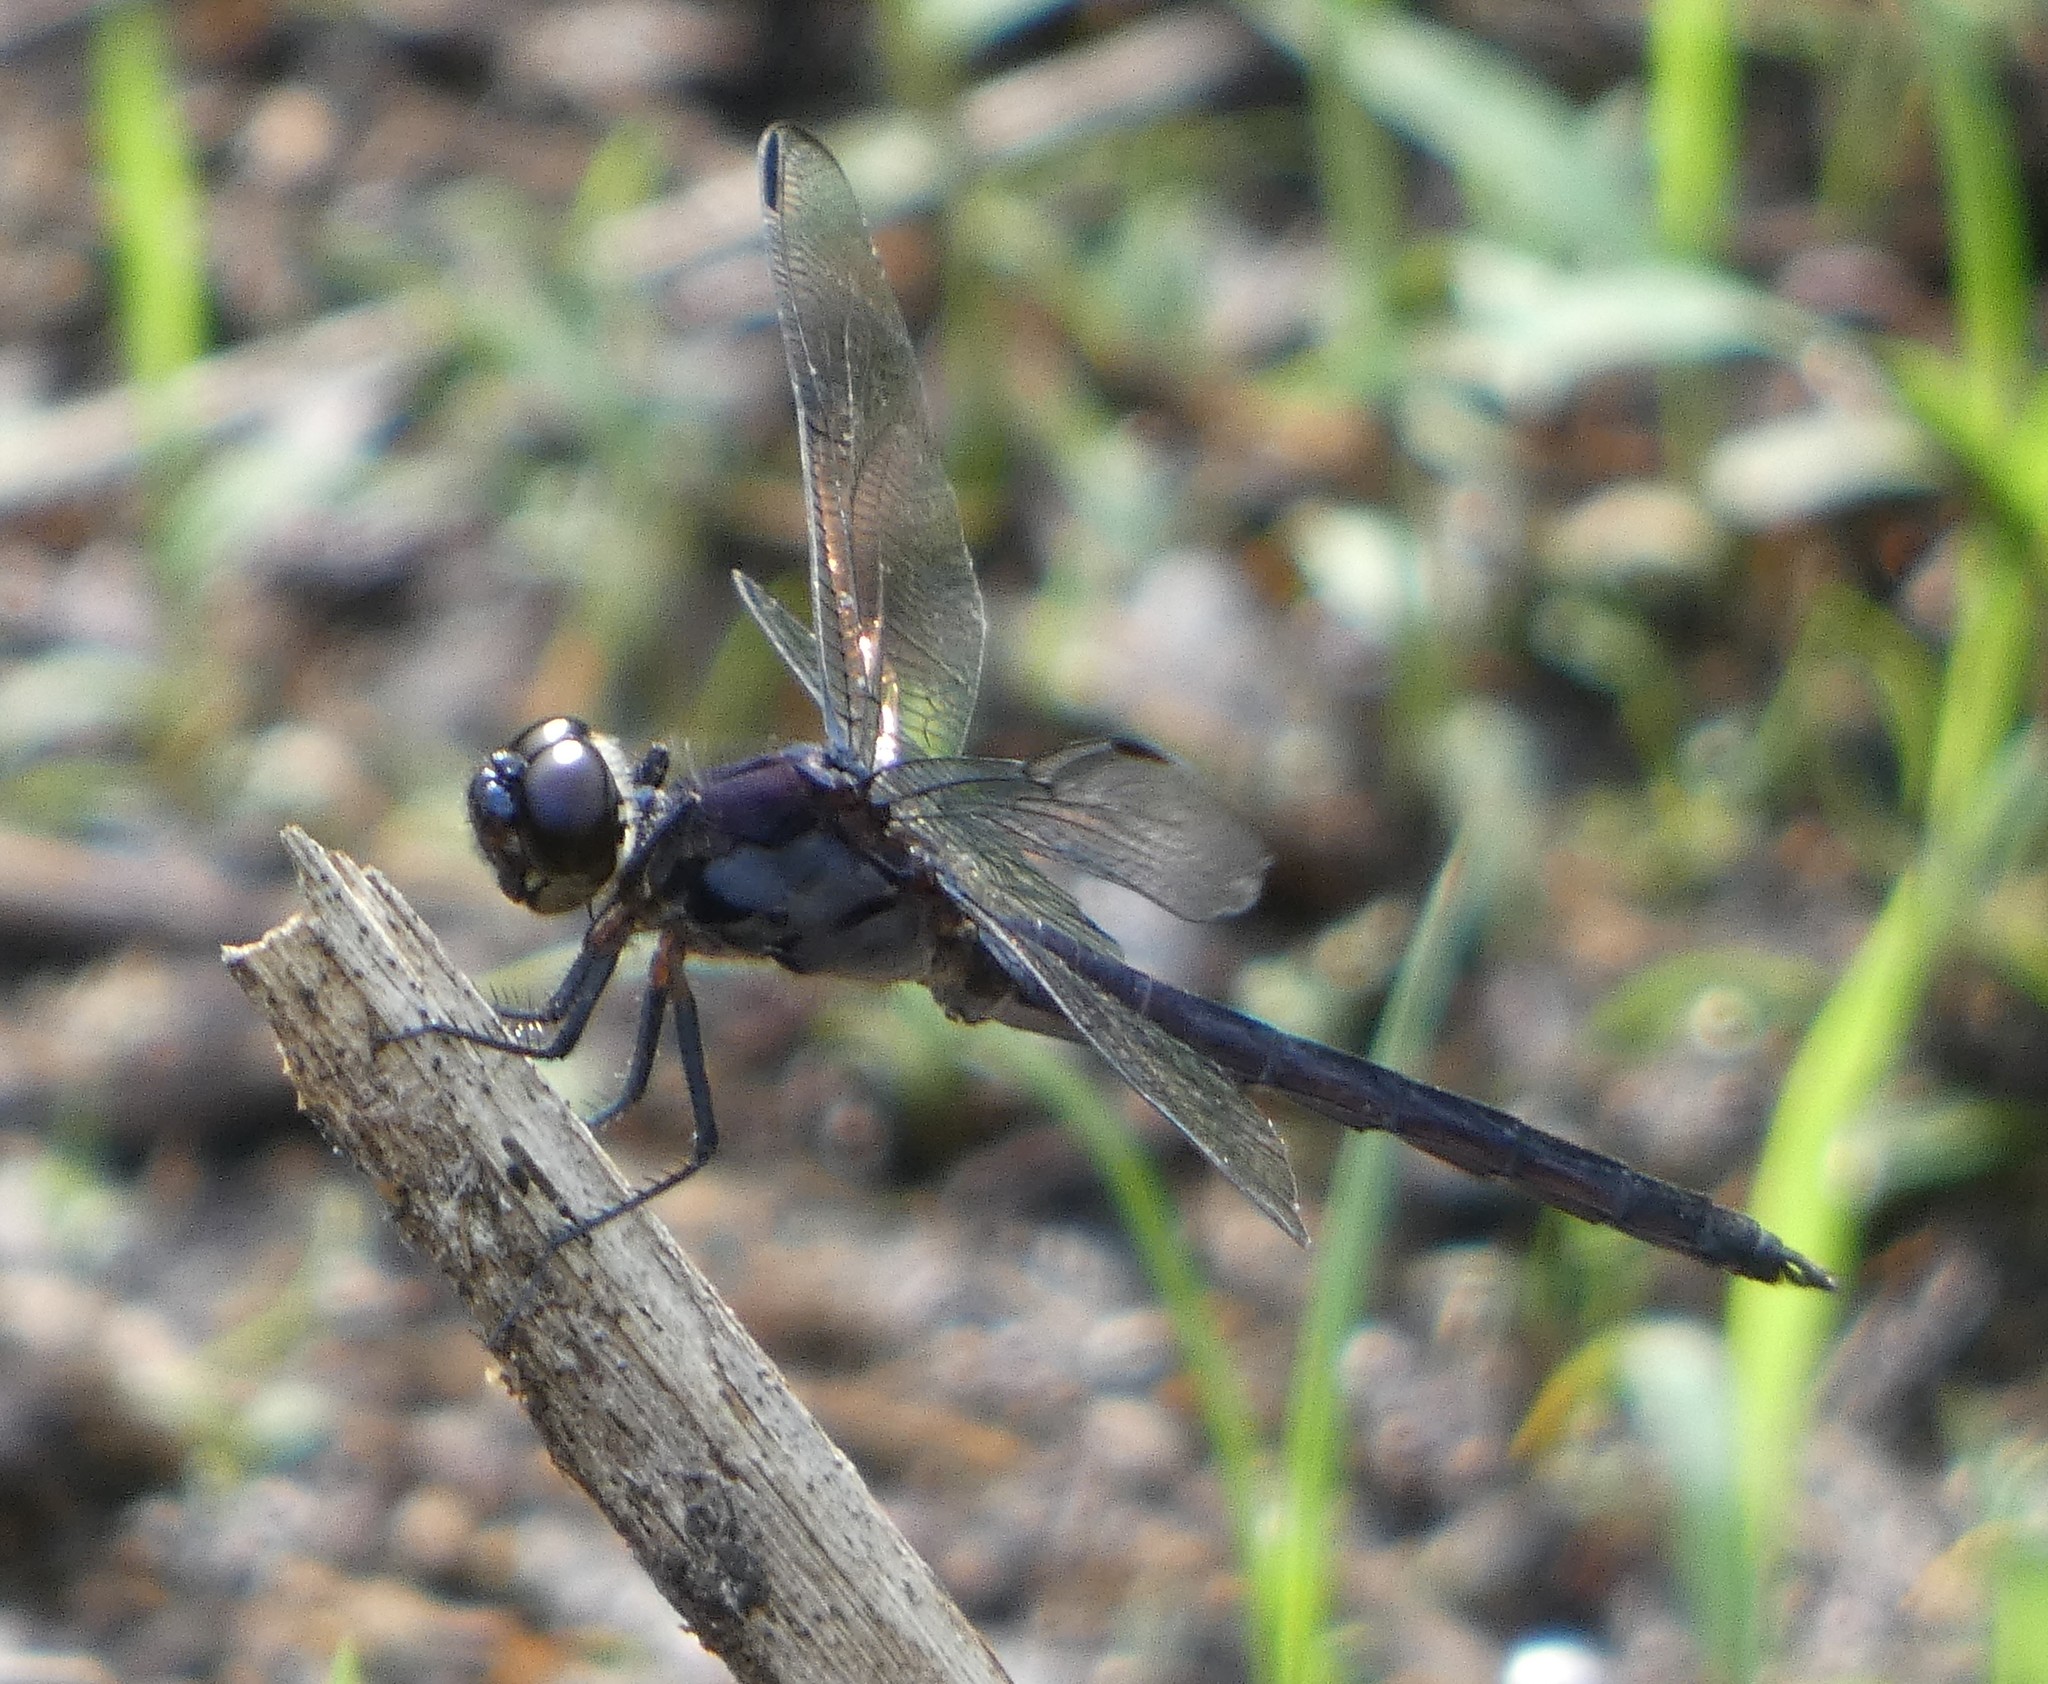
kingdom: Animalia
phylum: Arthropoda
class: Insecta
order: Odonata
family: Libellulidae
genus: Libellula
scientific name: Libellula incesta
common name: Slaty skimmer
